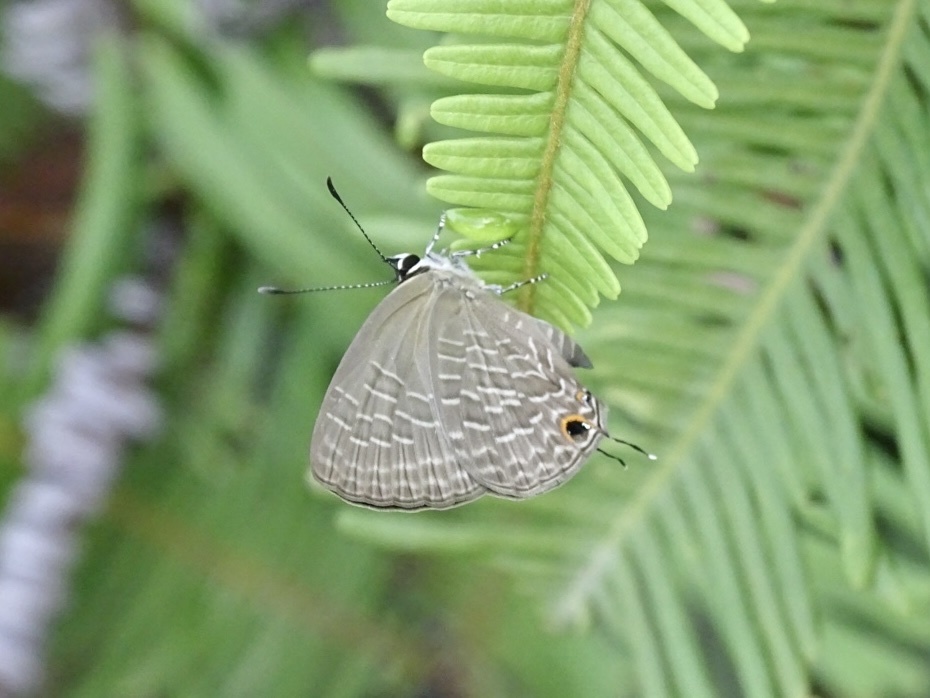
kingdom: Animalia
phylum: Arthropoda
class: Insecta
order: Lepidoptera
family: Lycaenidae
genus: Jamides
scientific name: Jamides bochus
